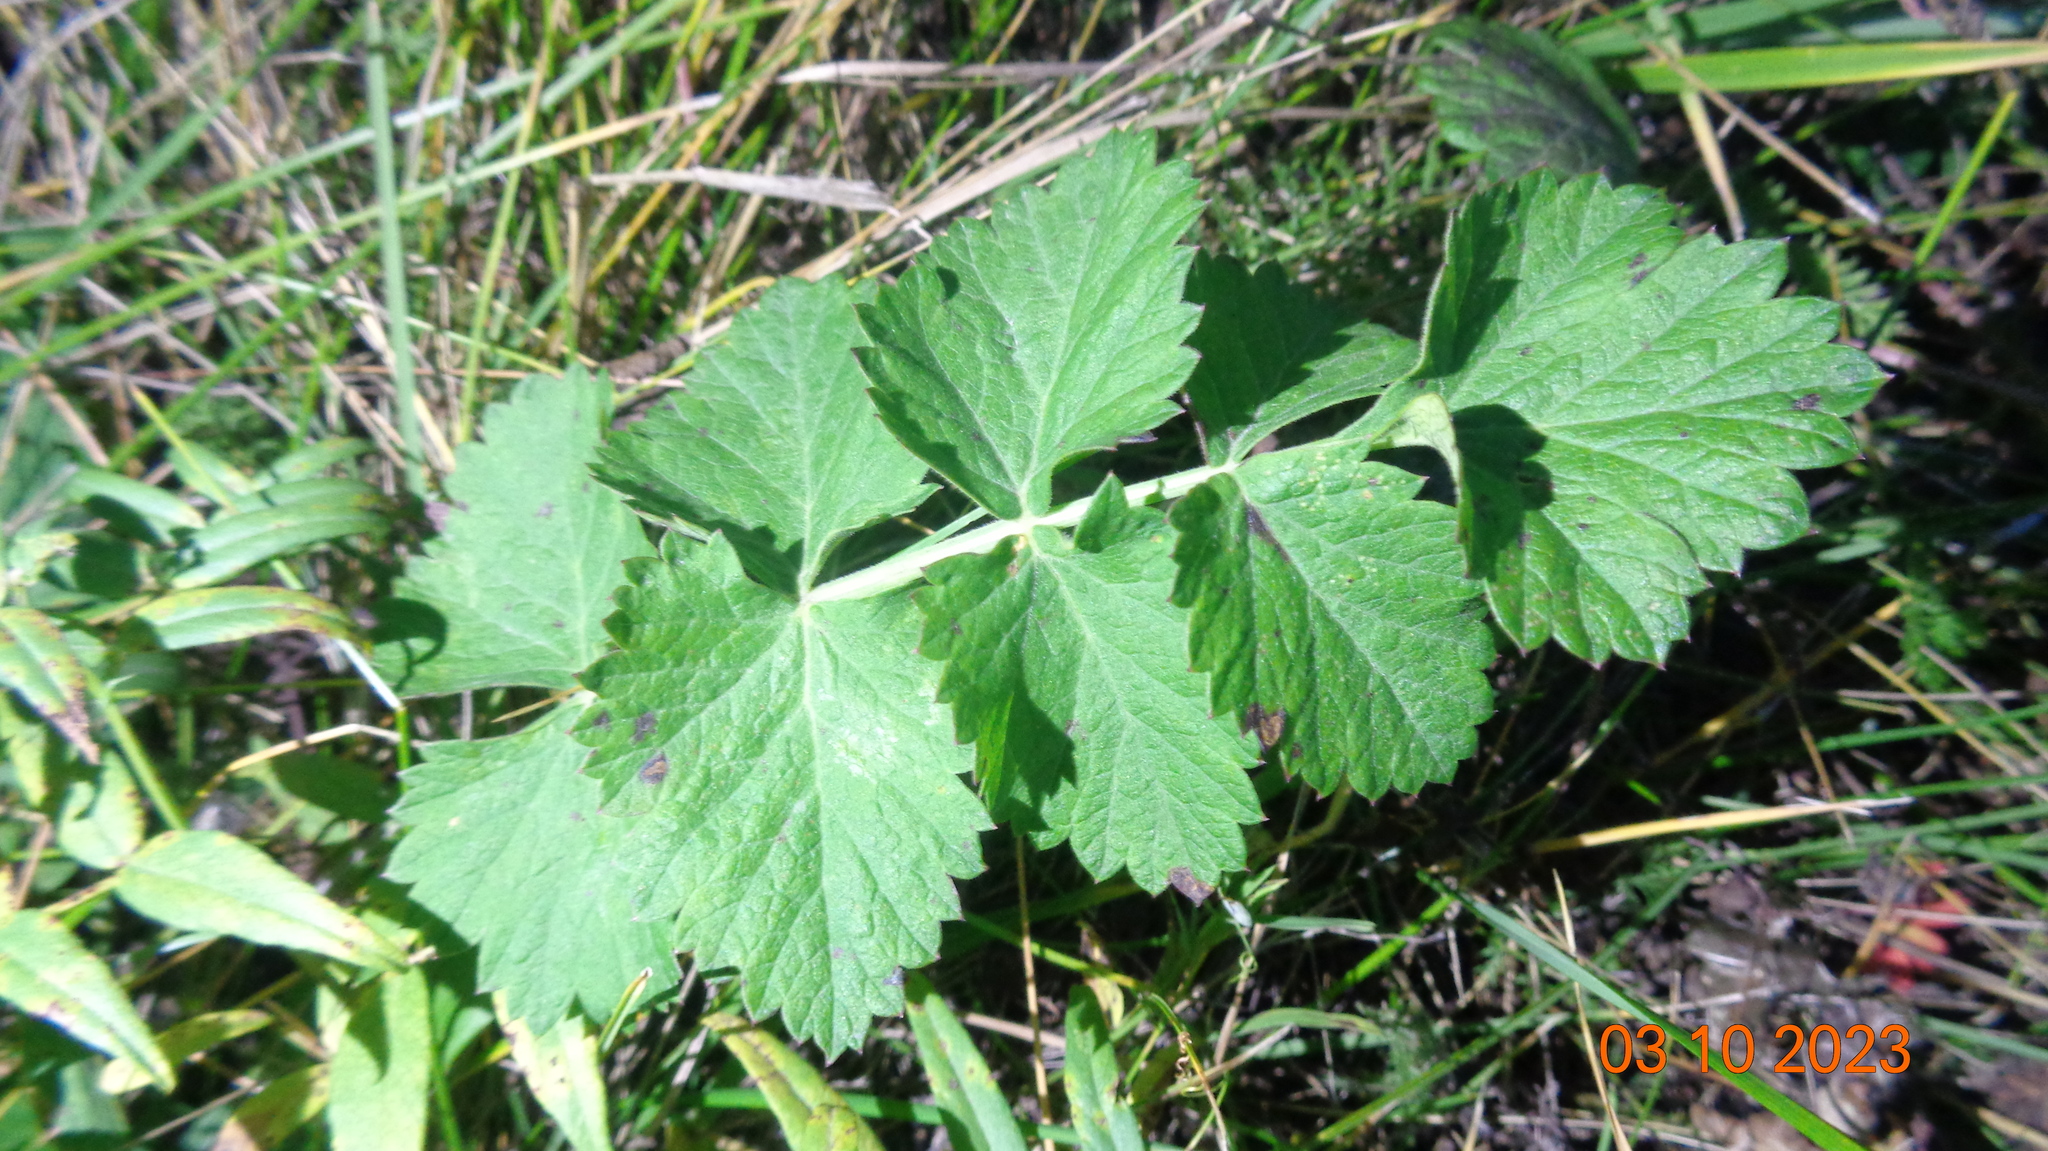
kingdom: Plantae
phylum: Tracheophyta
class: Magnoliopsida
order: Apiales
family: Apiaceae
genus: Pimpinella
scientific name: Pimpinella saxifraga
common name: Burnet-saxifrage
